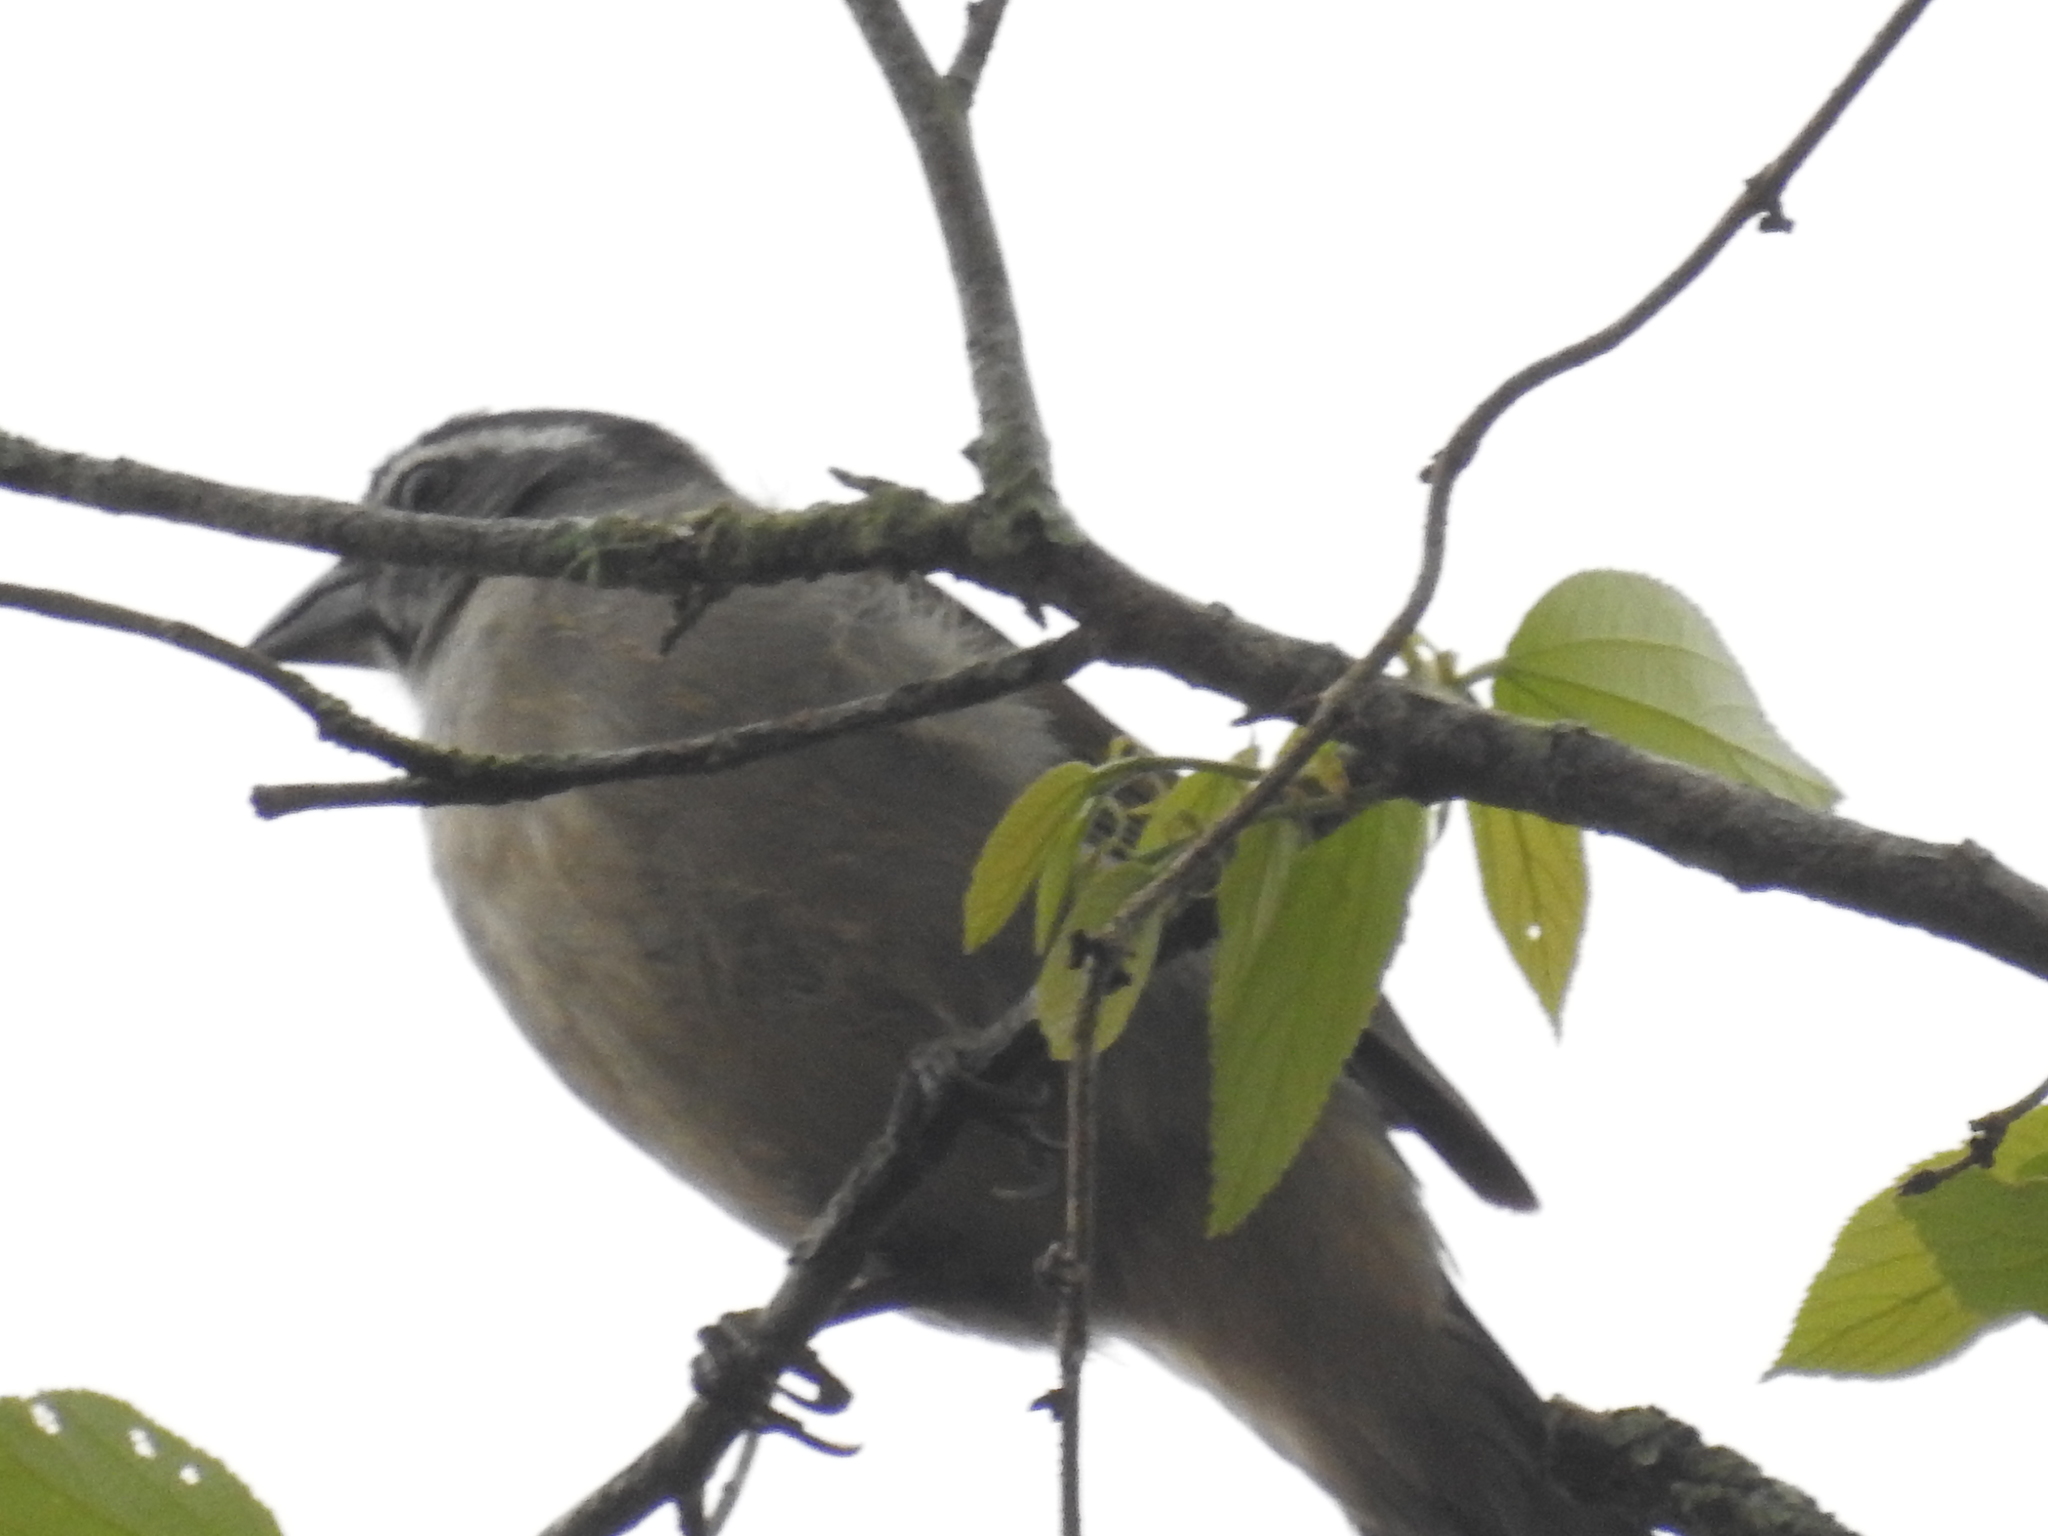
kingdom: Animalia
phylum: Chordata
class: Aves
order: Passeriformes
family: Thraupidae
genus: Saltator
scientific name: Saltator similis
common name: Green-winged saltator
